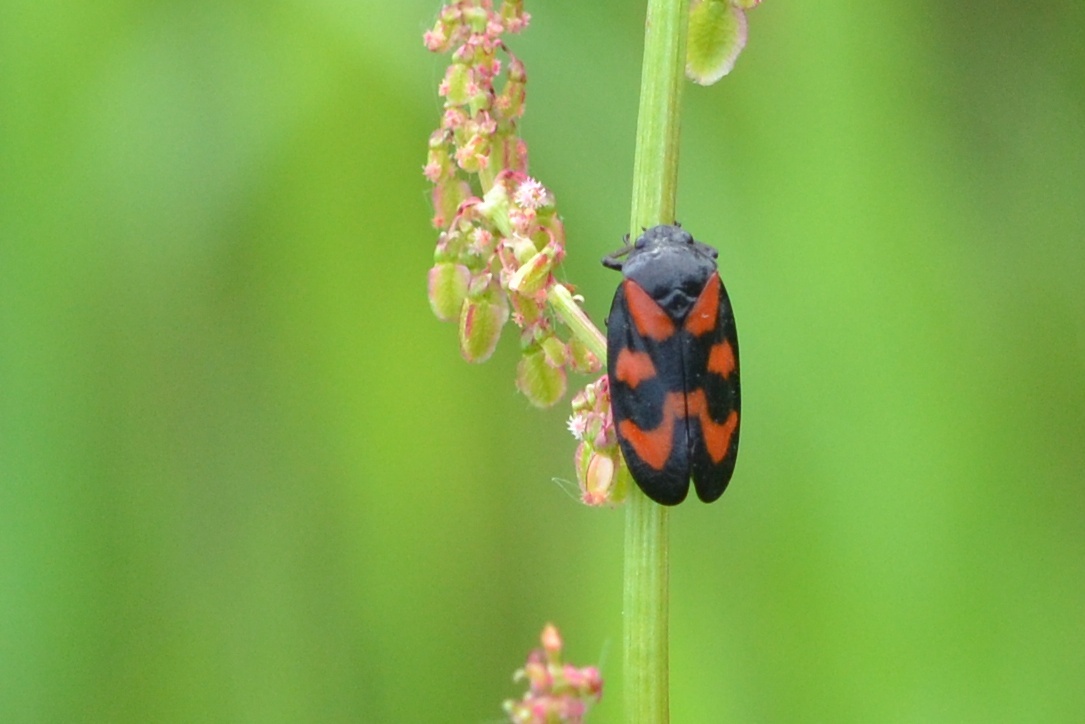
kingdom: Animalia
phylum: Arthropoda
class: Insecta
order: Hemiptera
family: Cercopidae
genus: Cercopis
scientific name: Cercopis vulnerata
